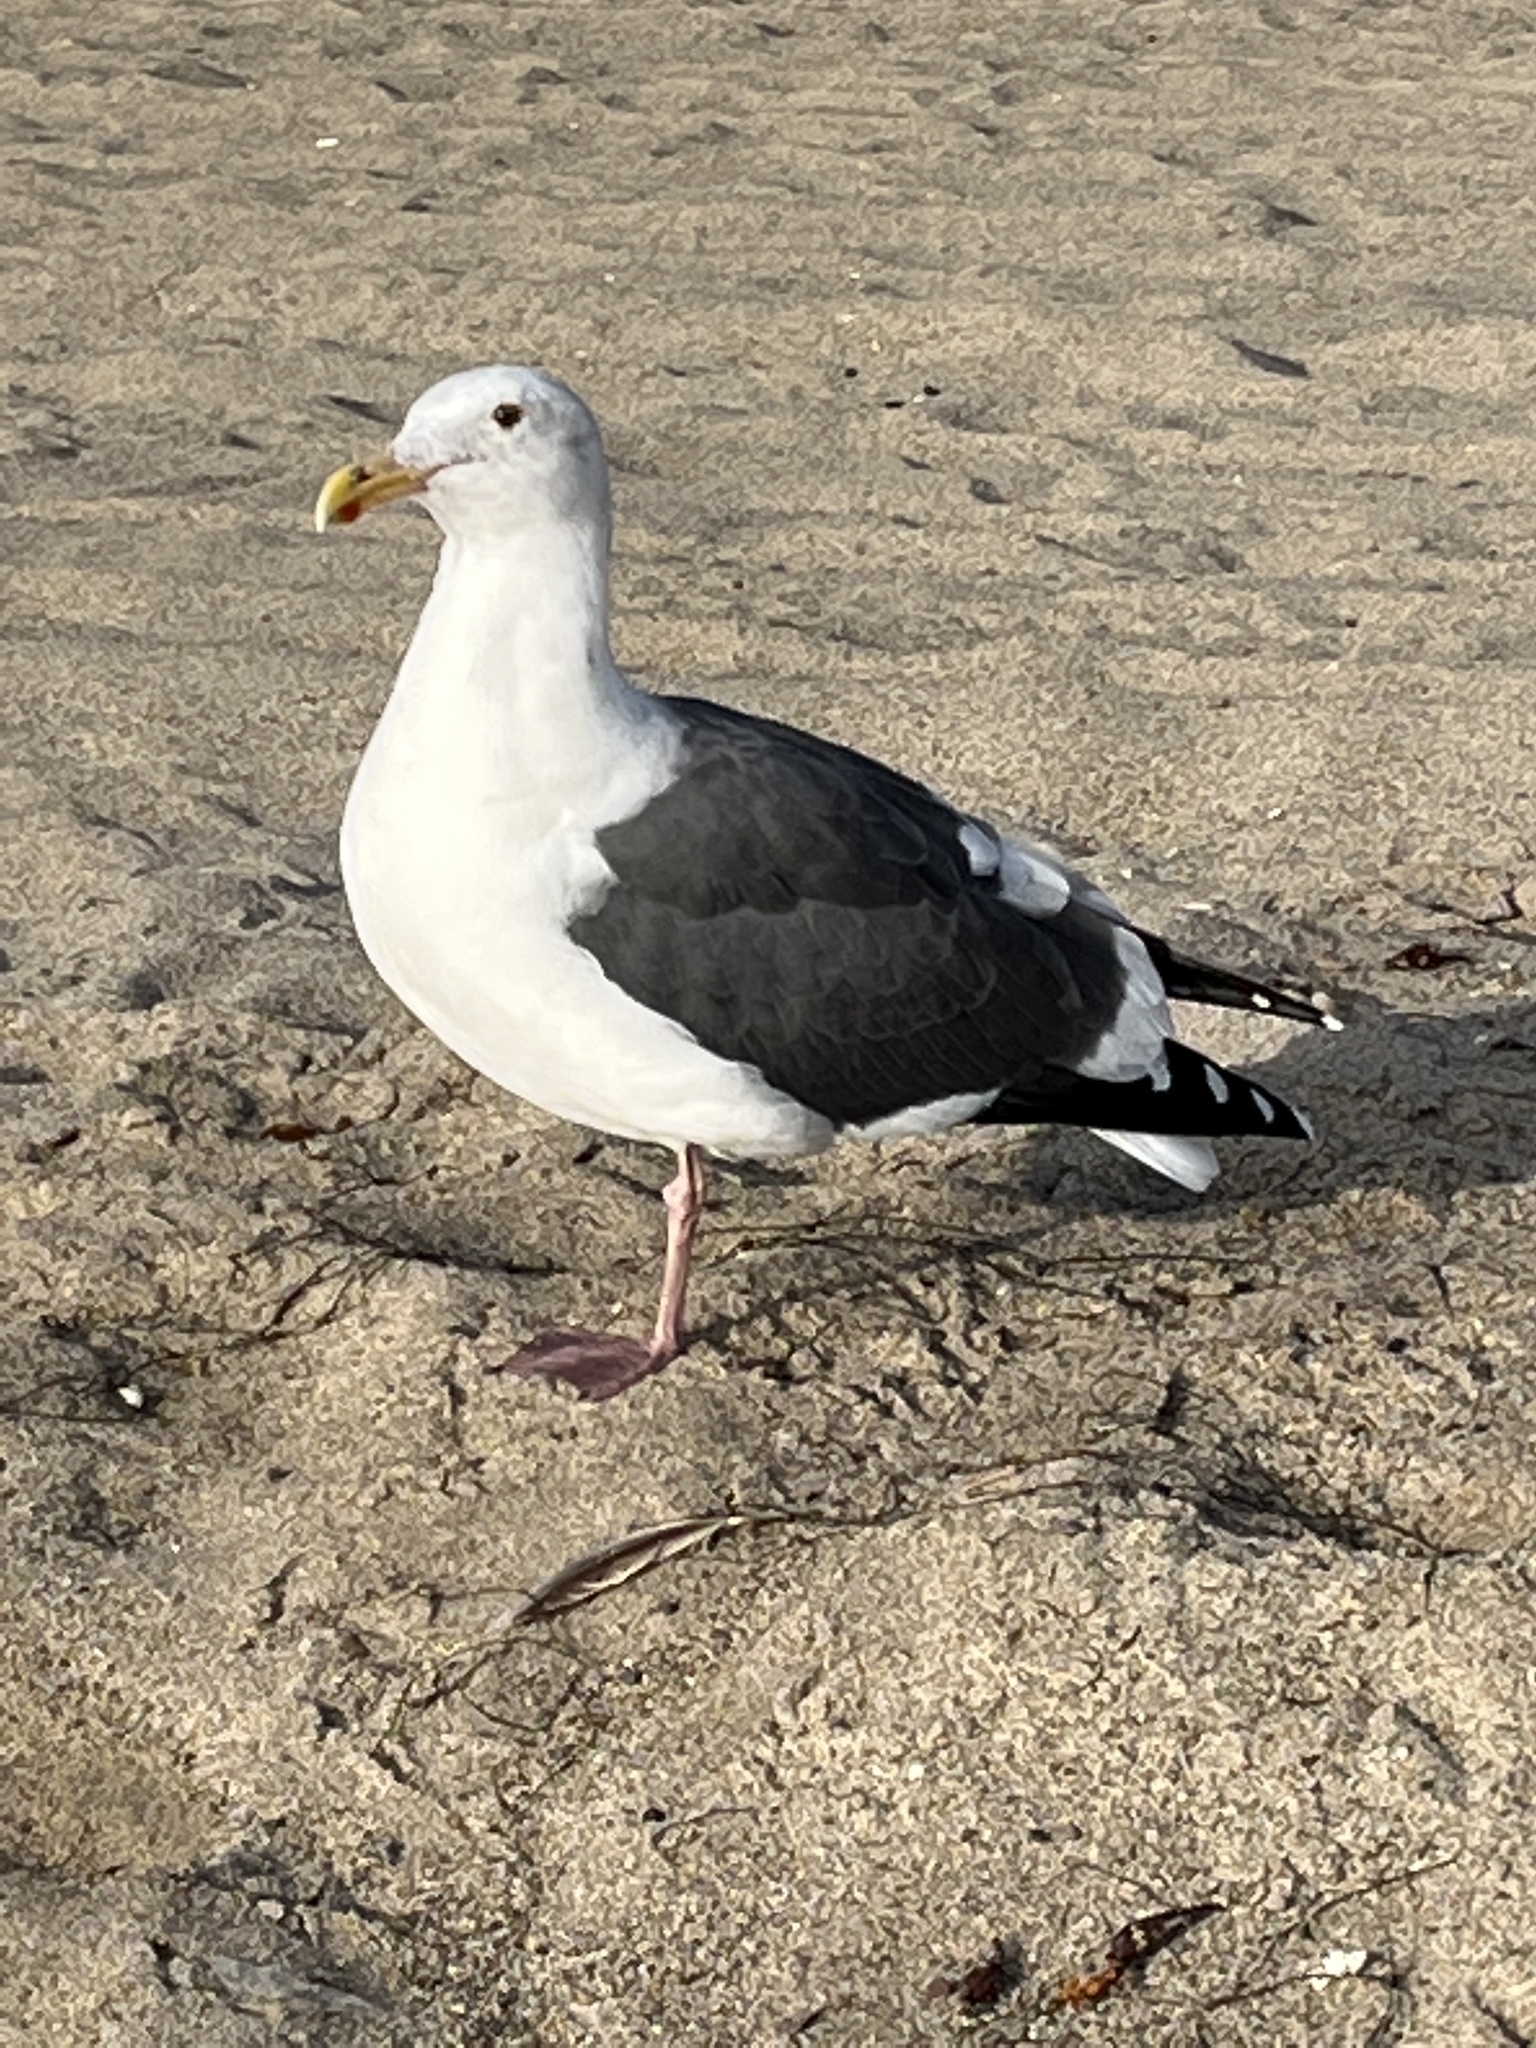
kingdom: Animalia
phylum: Chordata
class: Aves
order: Charadriiformes
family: Laridae
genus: Larus
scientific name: Larus occidentalis
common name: Western gull
